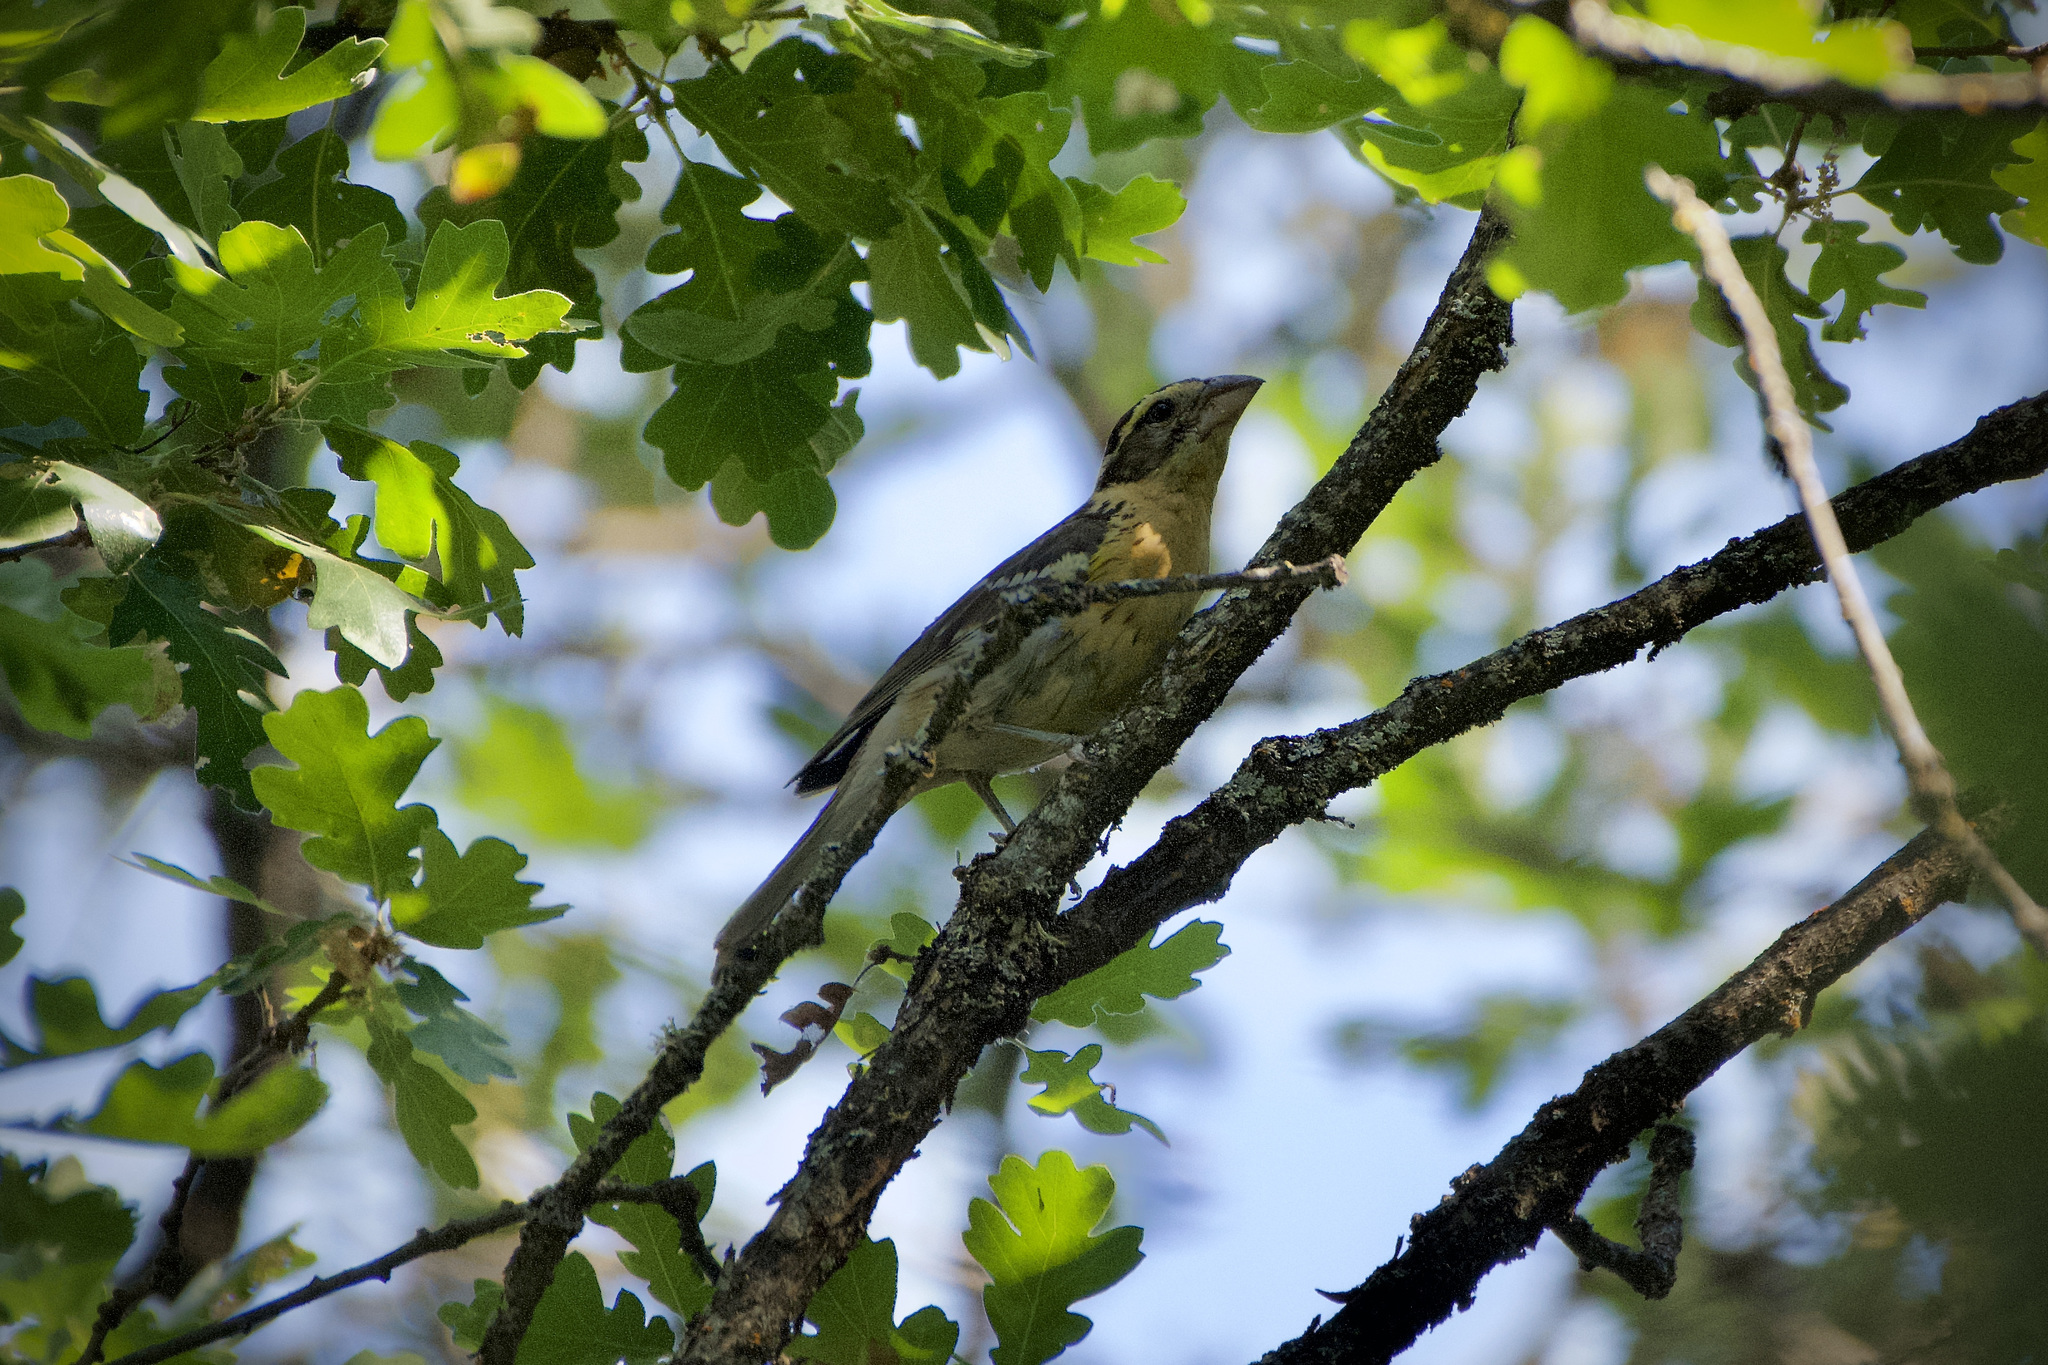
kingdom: Animalia
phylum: Chordata
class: Aves
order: Passeriformes
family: Cardinalidae
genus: Pheucticus
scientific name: Pheucticus melanocephalus
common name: Black-headed grosbeak
